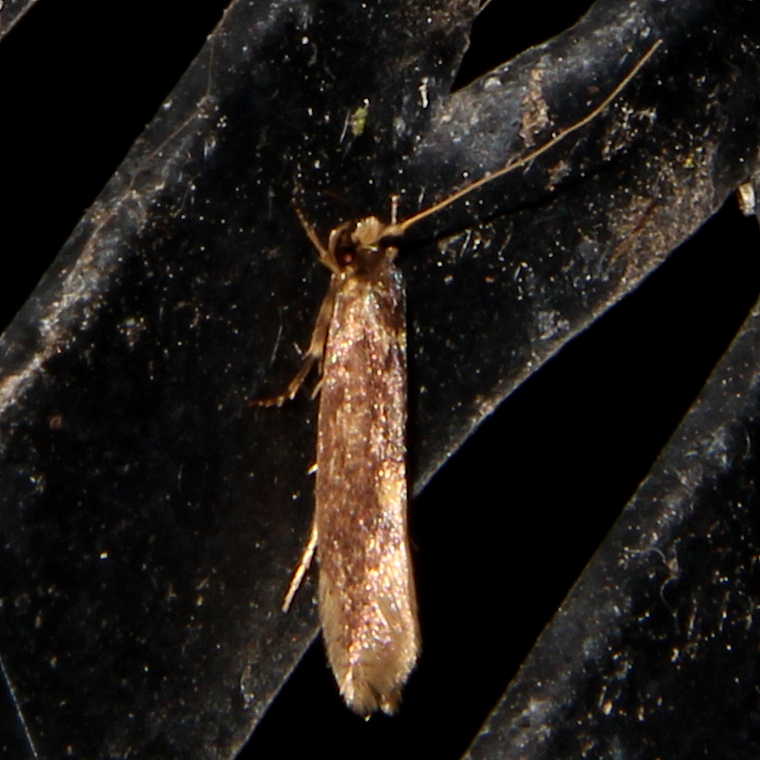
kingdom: Animalia
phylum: Arthropoda
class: Insecta
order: Lepidoptera
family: Tineidae
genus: Opogona
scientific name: Opogona omoscopa
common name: Moth
